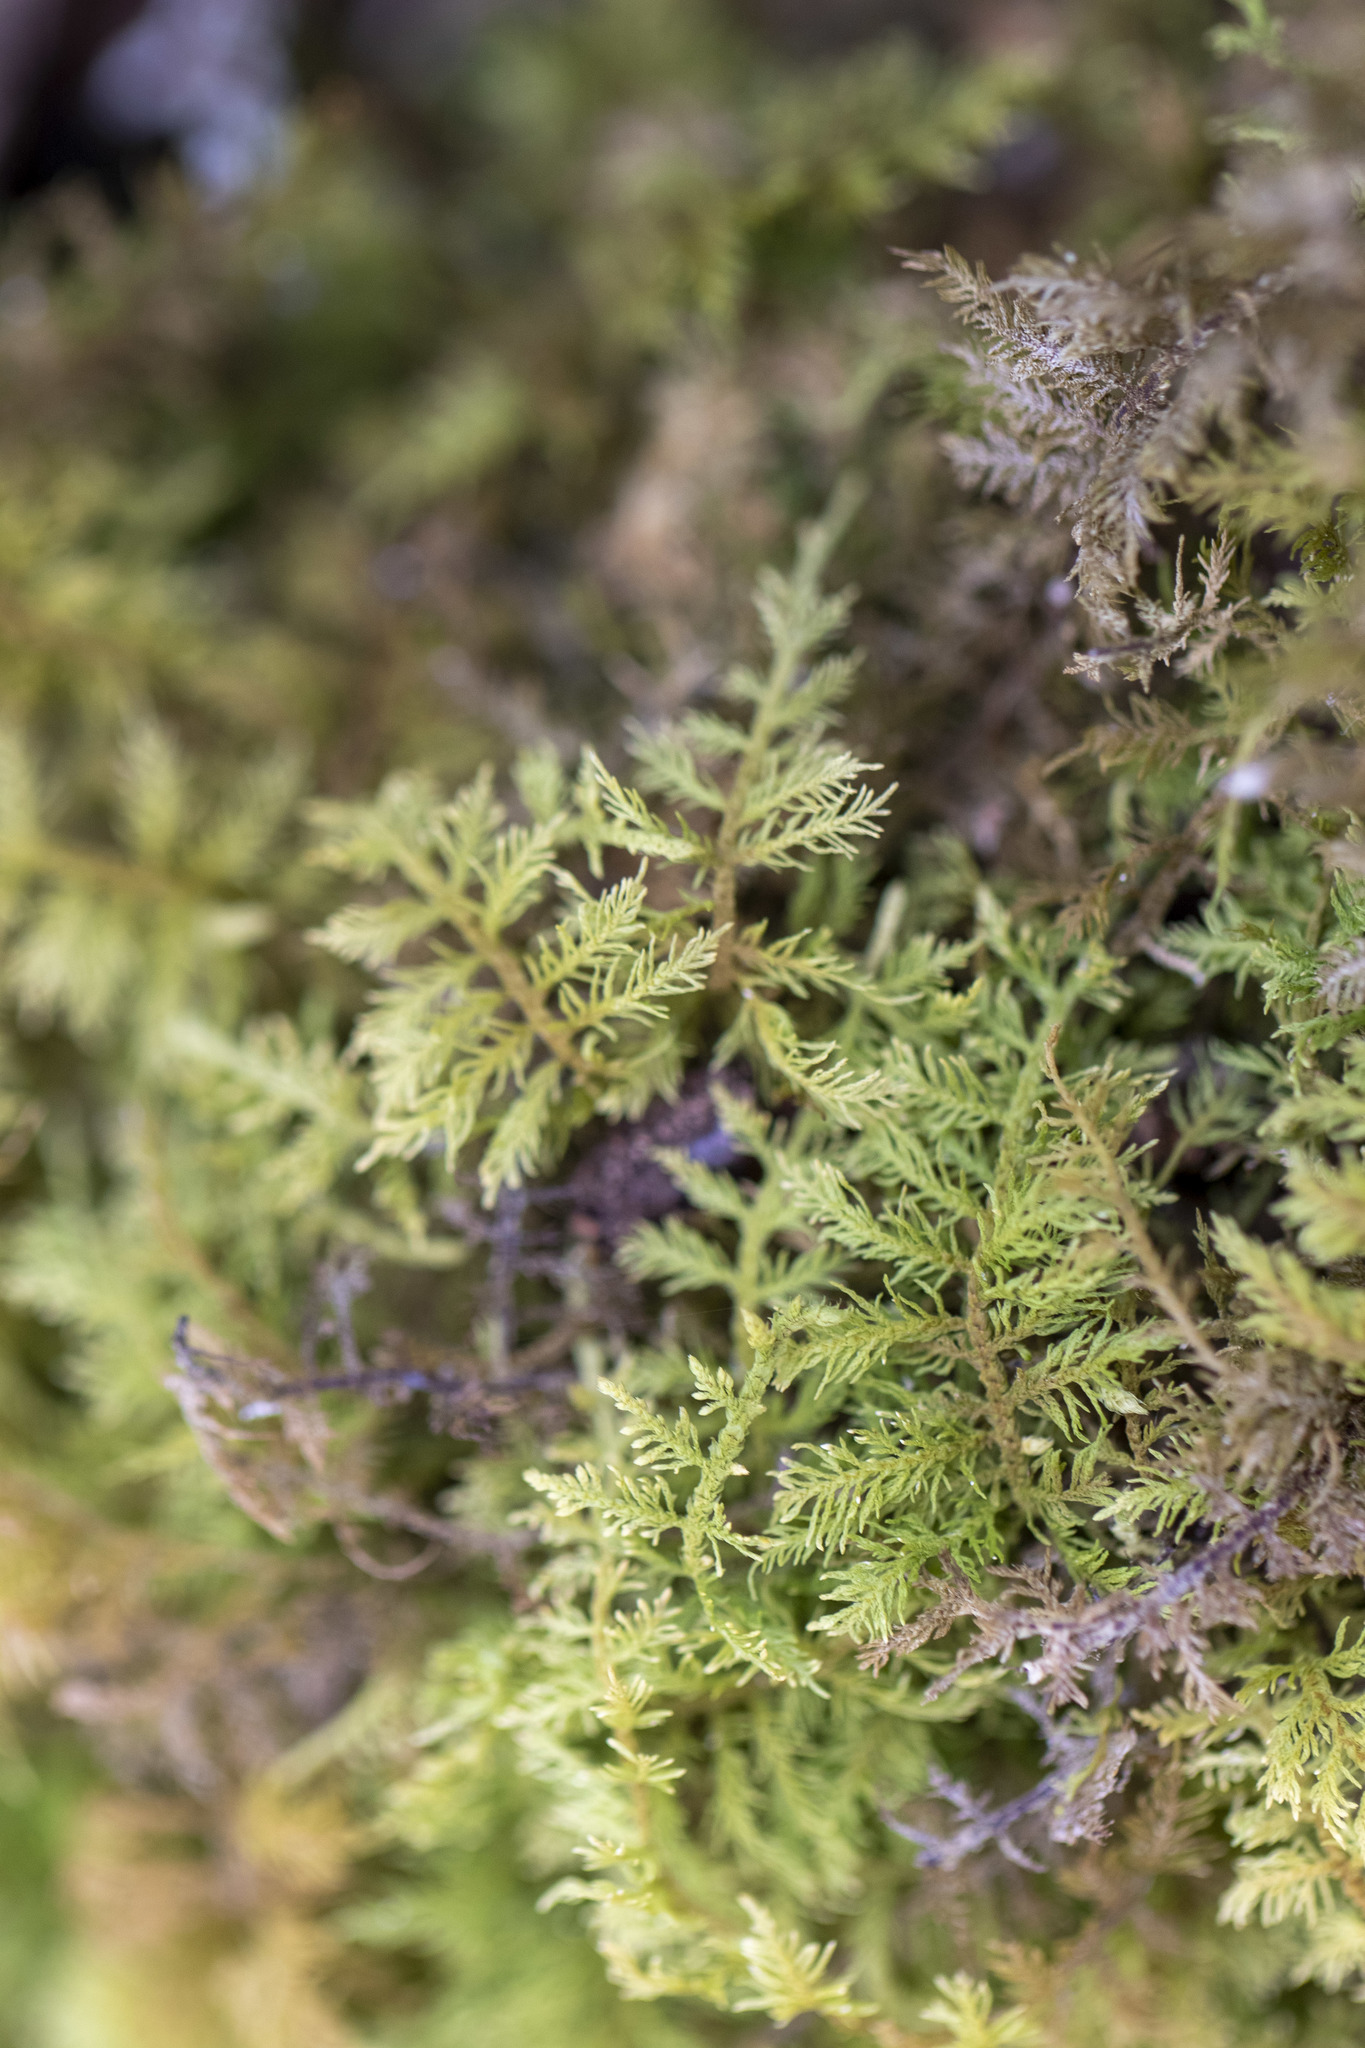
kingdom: Plantae
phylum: Bryophyta
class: Bryopsida
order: Hypnales
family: Thuidiaceae
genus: Thuidium
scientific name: Thuidium delicatulum
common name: Delicate fern moss
